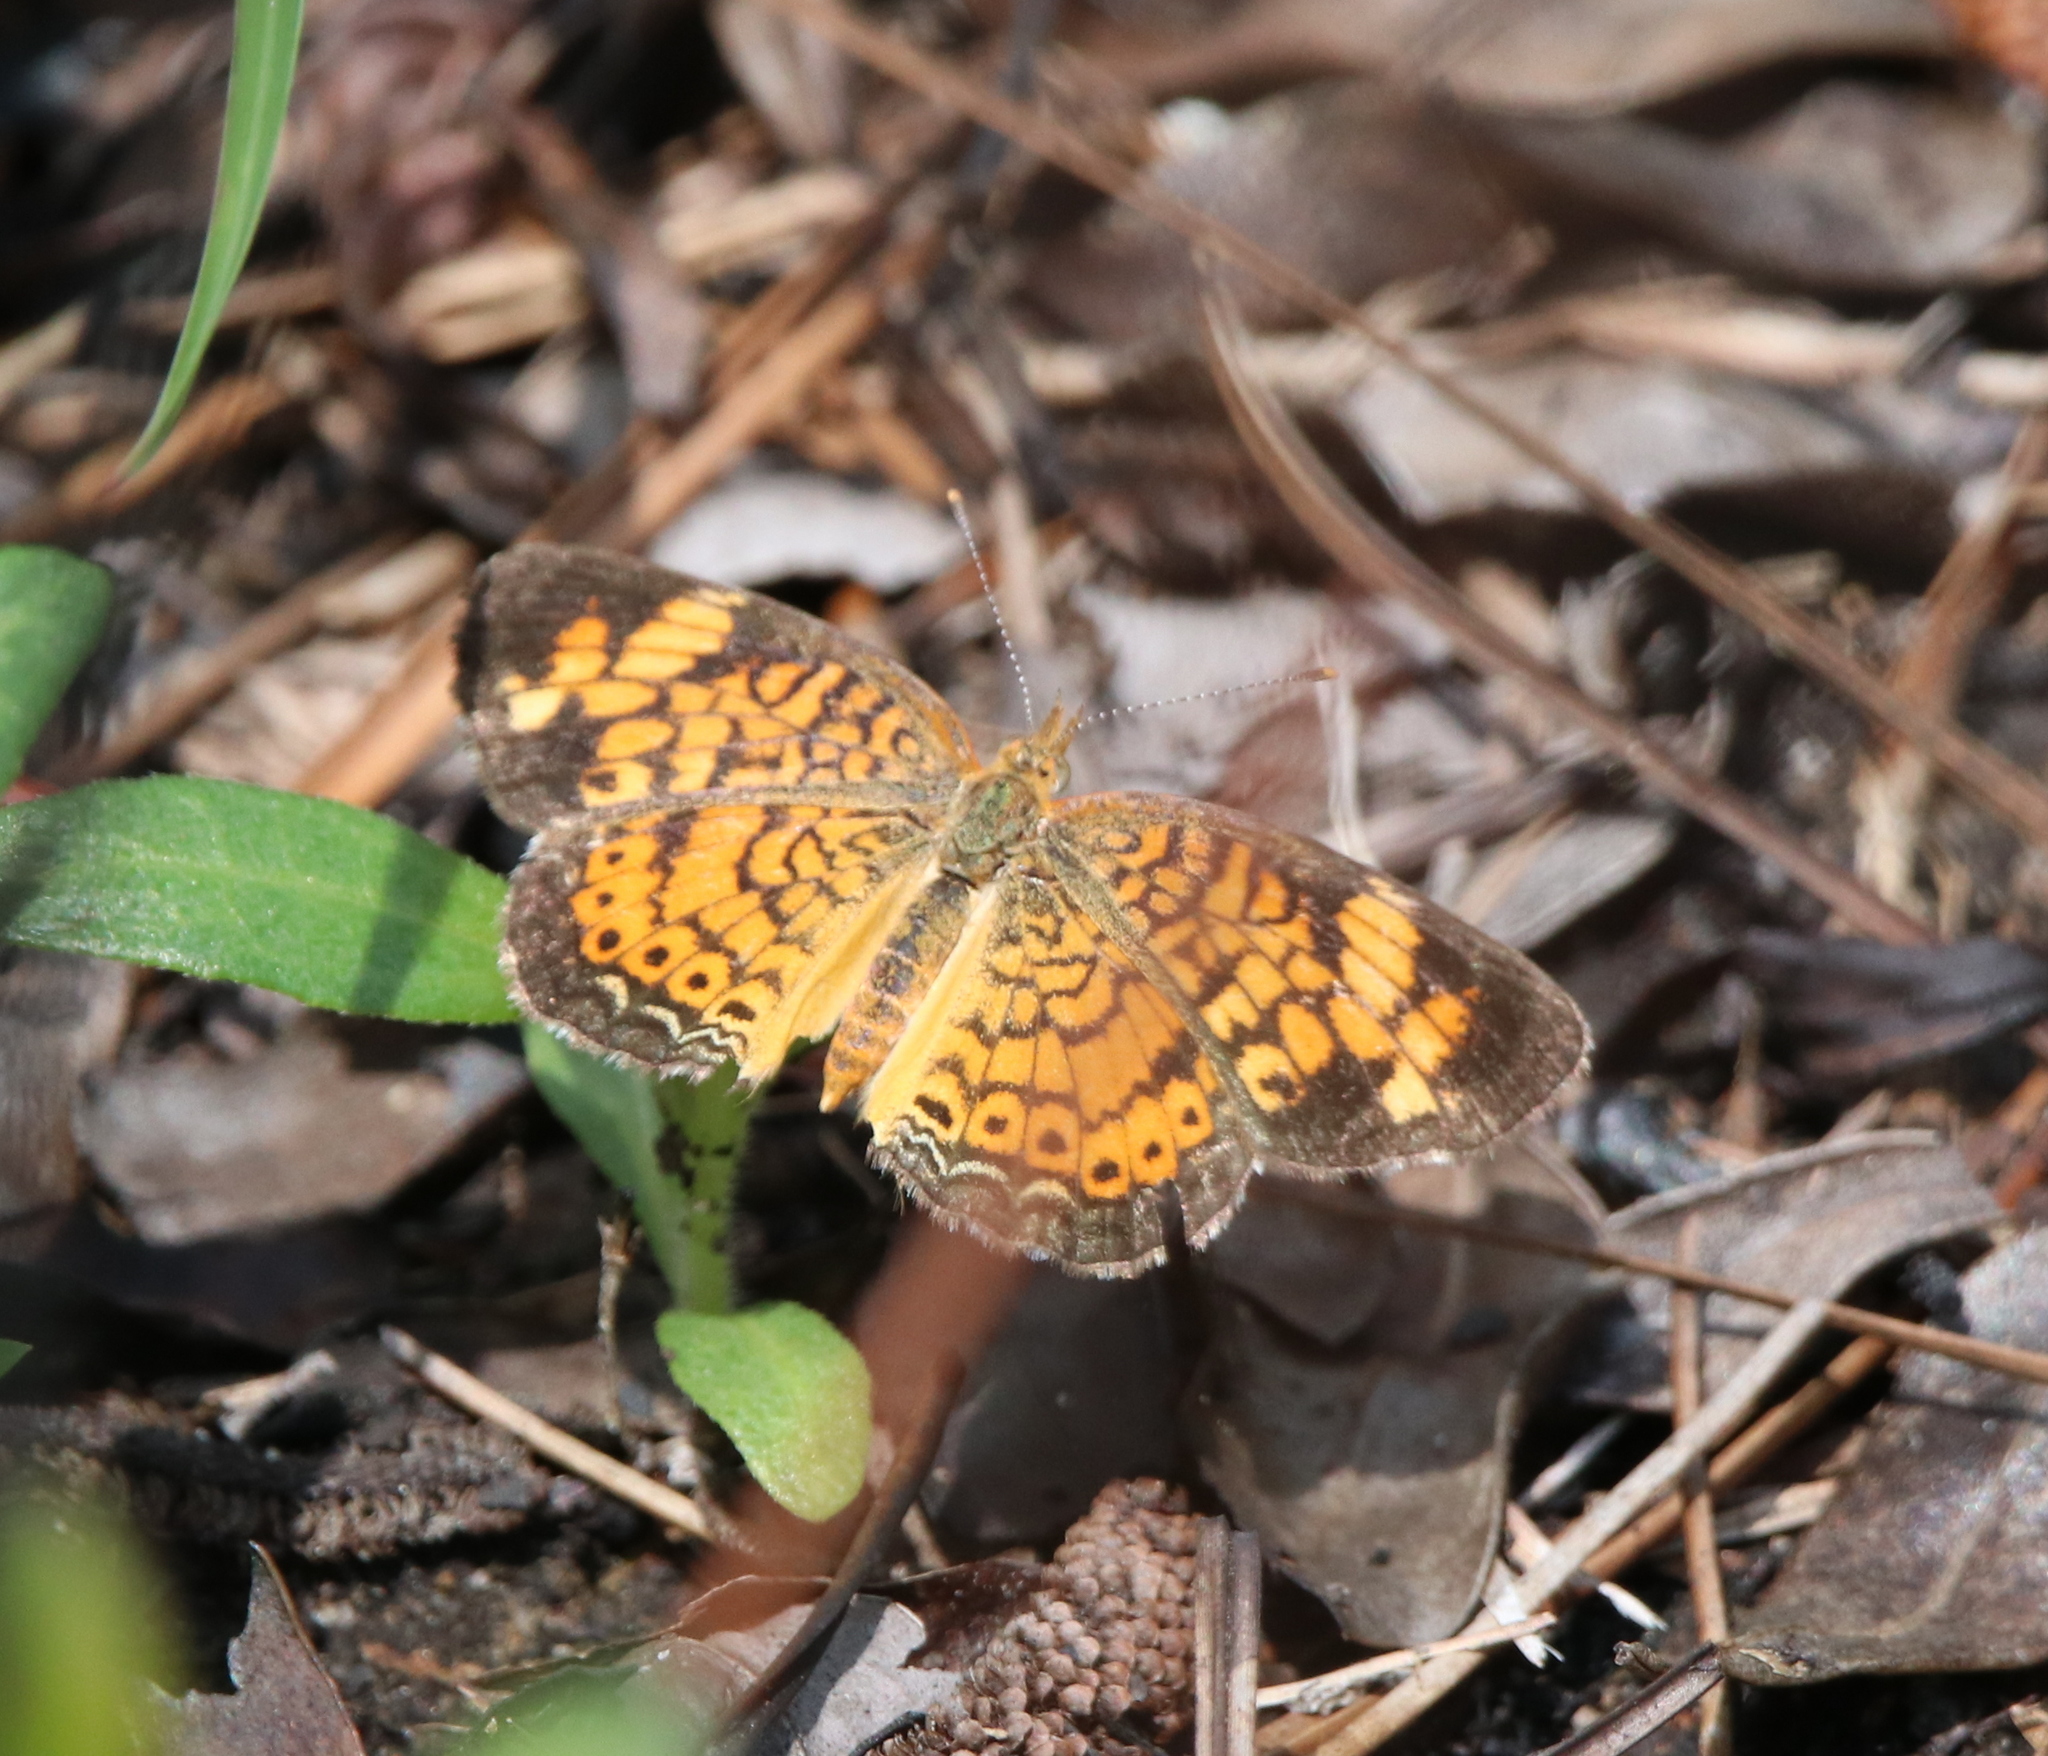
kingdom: Animalia
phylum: Arthropoda
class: Insecta
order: Lepidoptera
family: Nymphalidae
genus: Phyciodes
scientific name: Phyciodes tharos
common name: Pearl crescent
